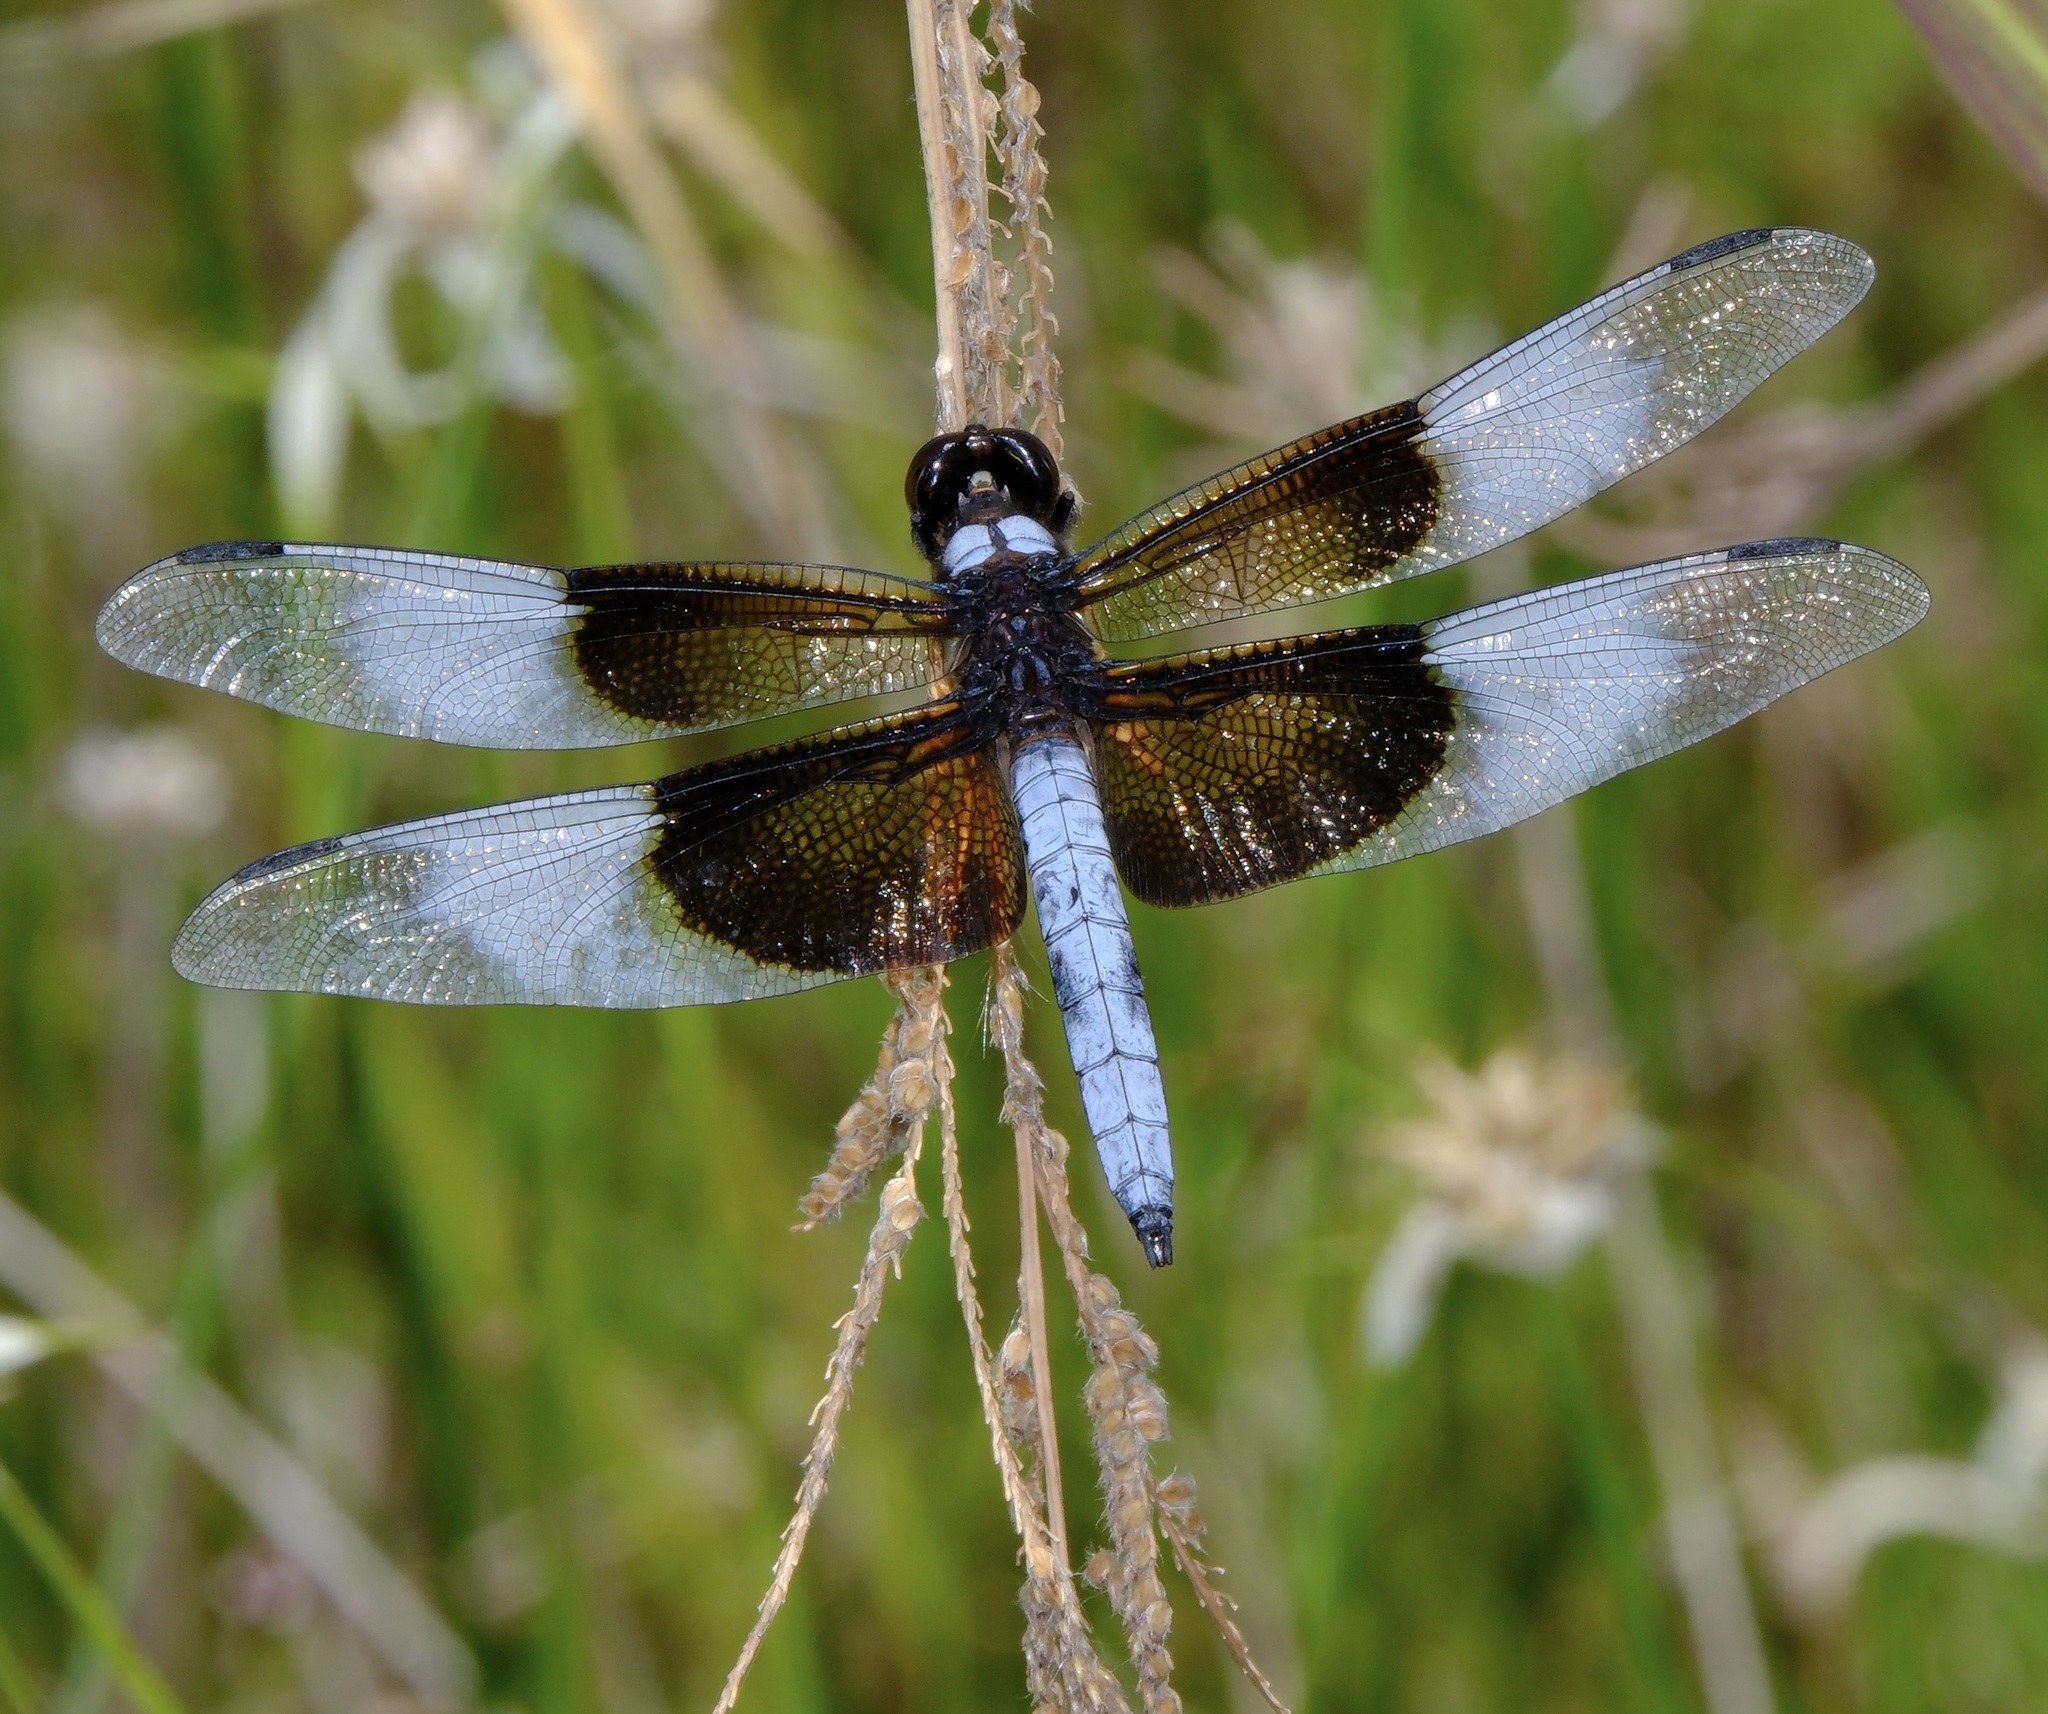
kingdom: Animalia
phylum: Arthropoda
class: Insecta
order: Odonata
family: Libellulidae
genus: Libellula
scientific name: Libellula luctuosa
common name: Widow skimmer
